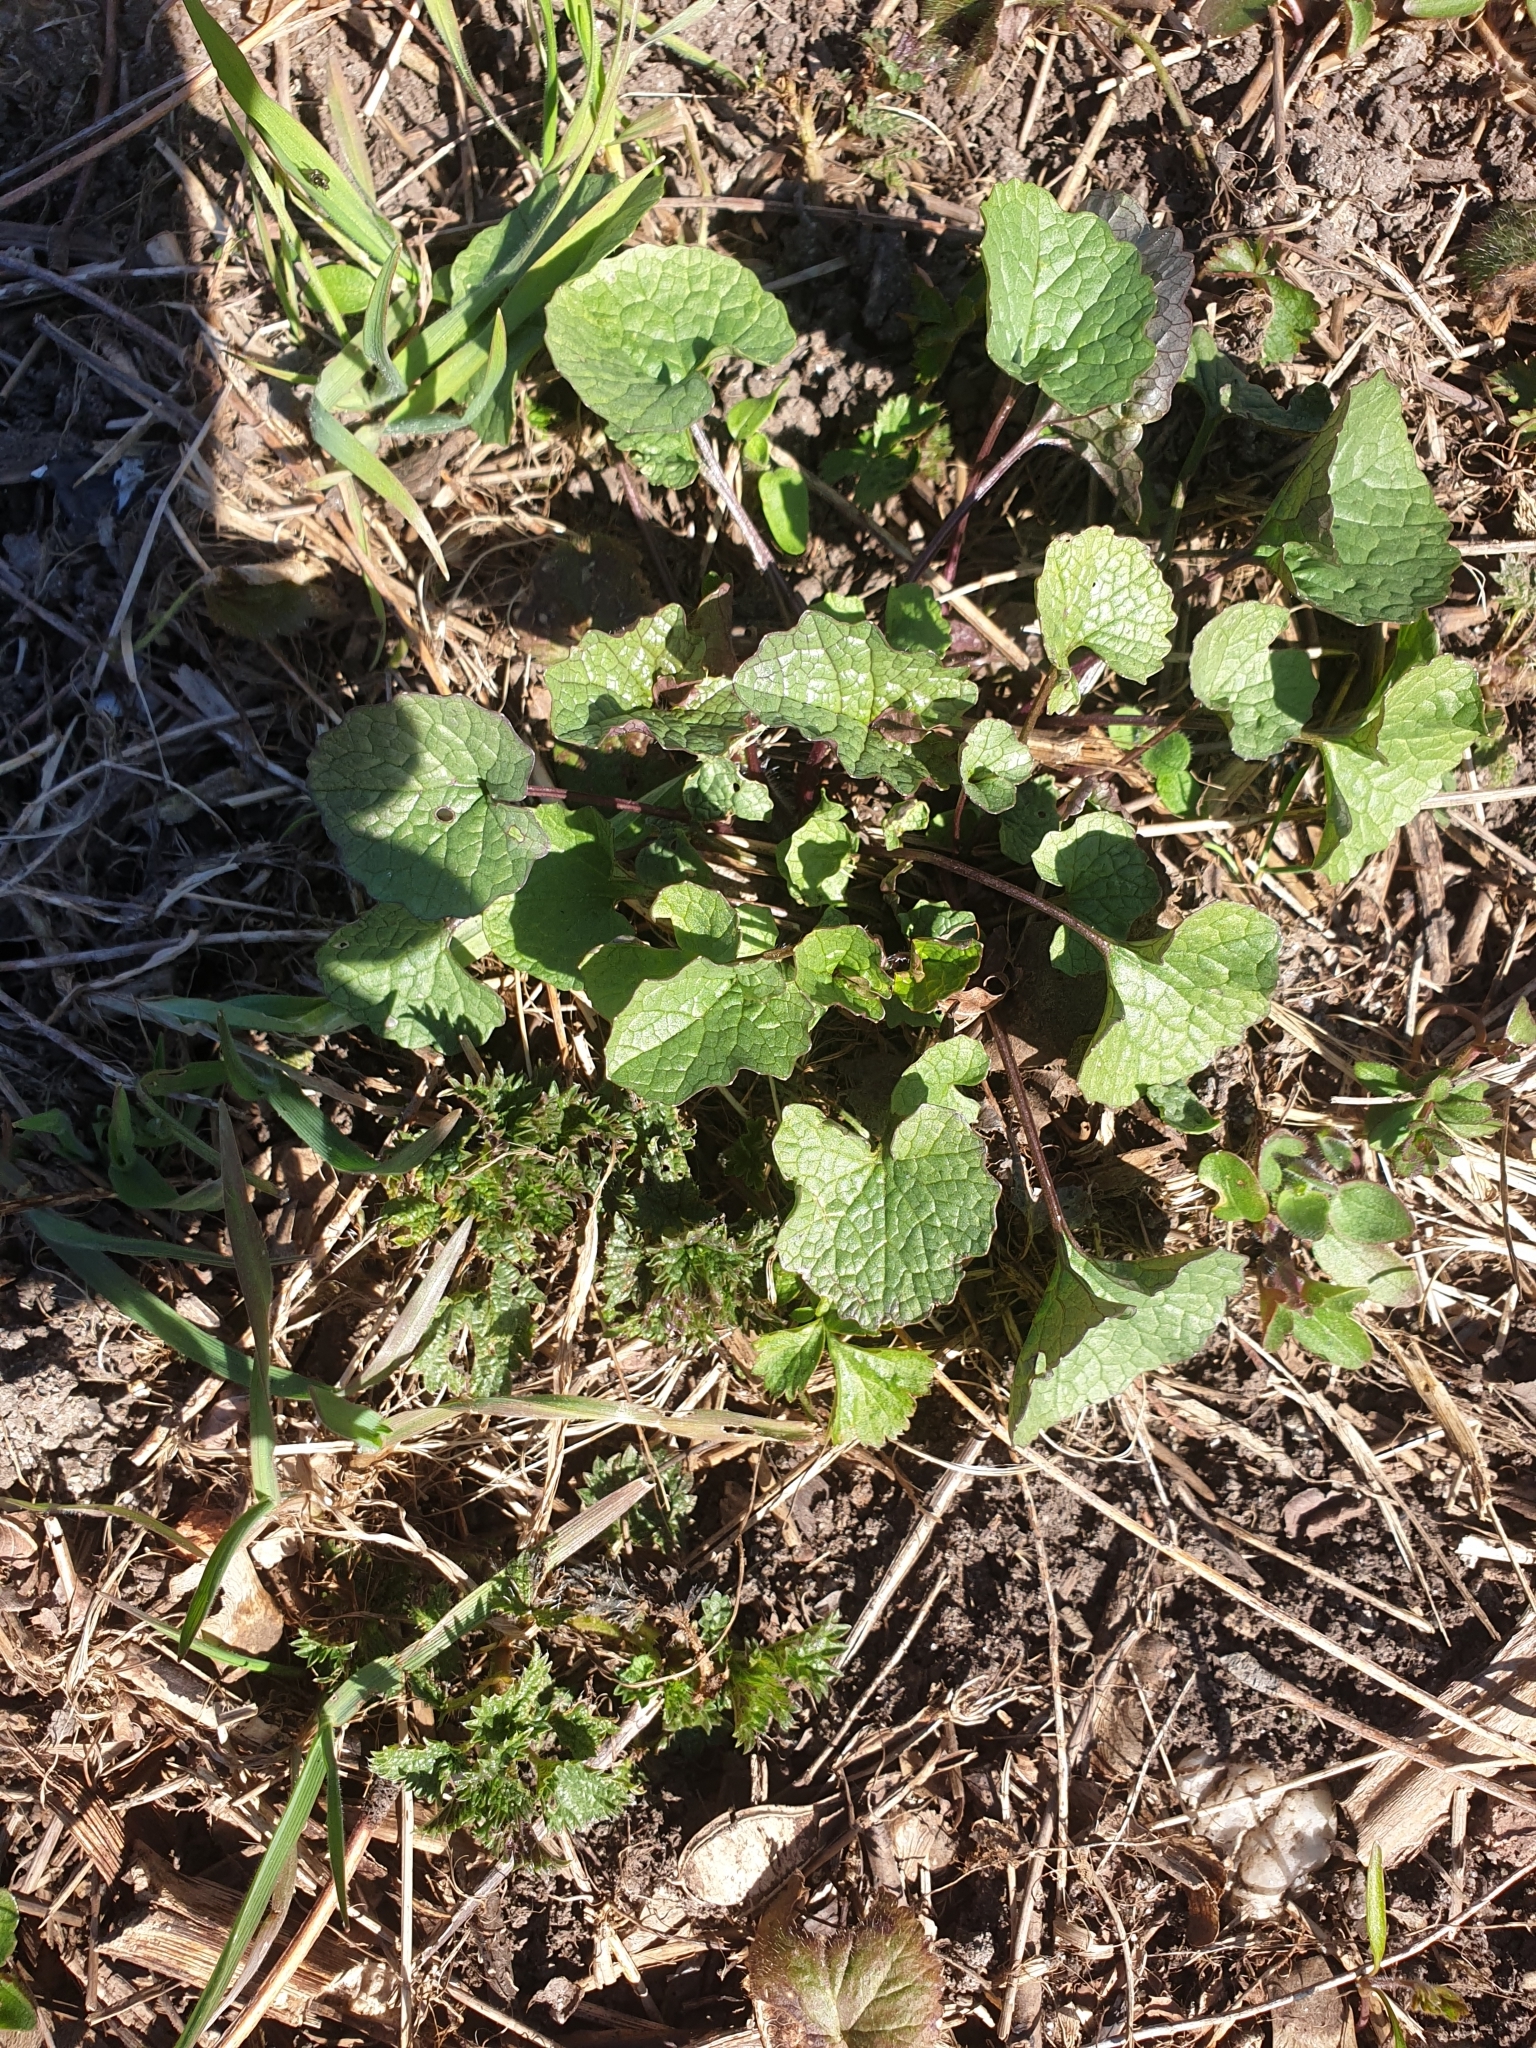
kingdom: Plantae
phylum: Tracheophyta
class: Magnoliopsida
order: Brassicales
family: Brassicaceae
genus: Alliaria
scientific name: Alliaria petiolata
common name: Garlic mustard
